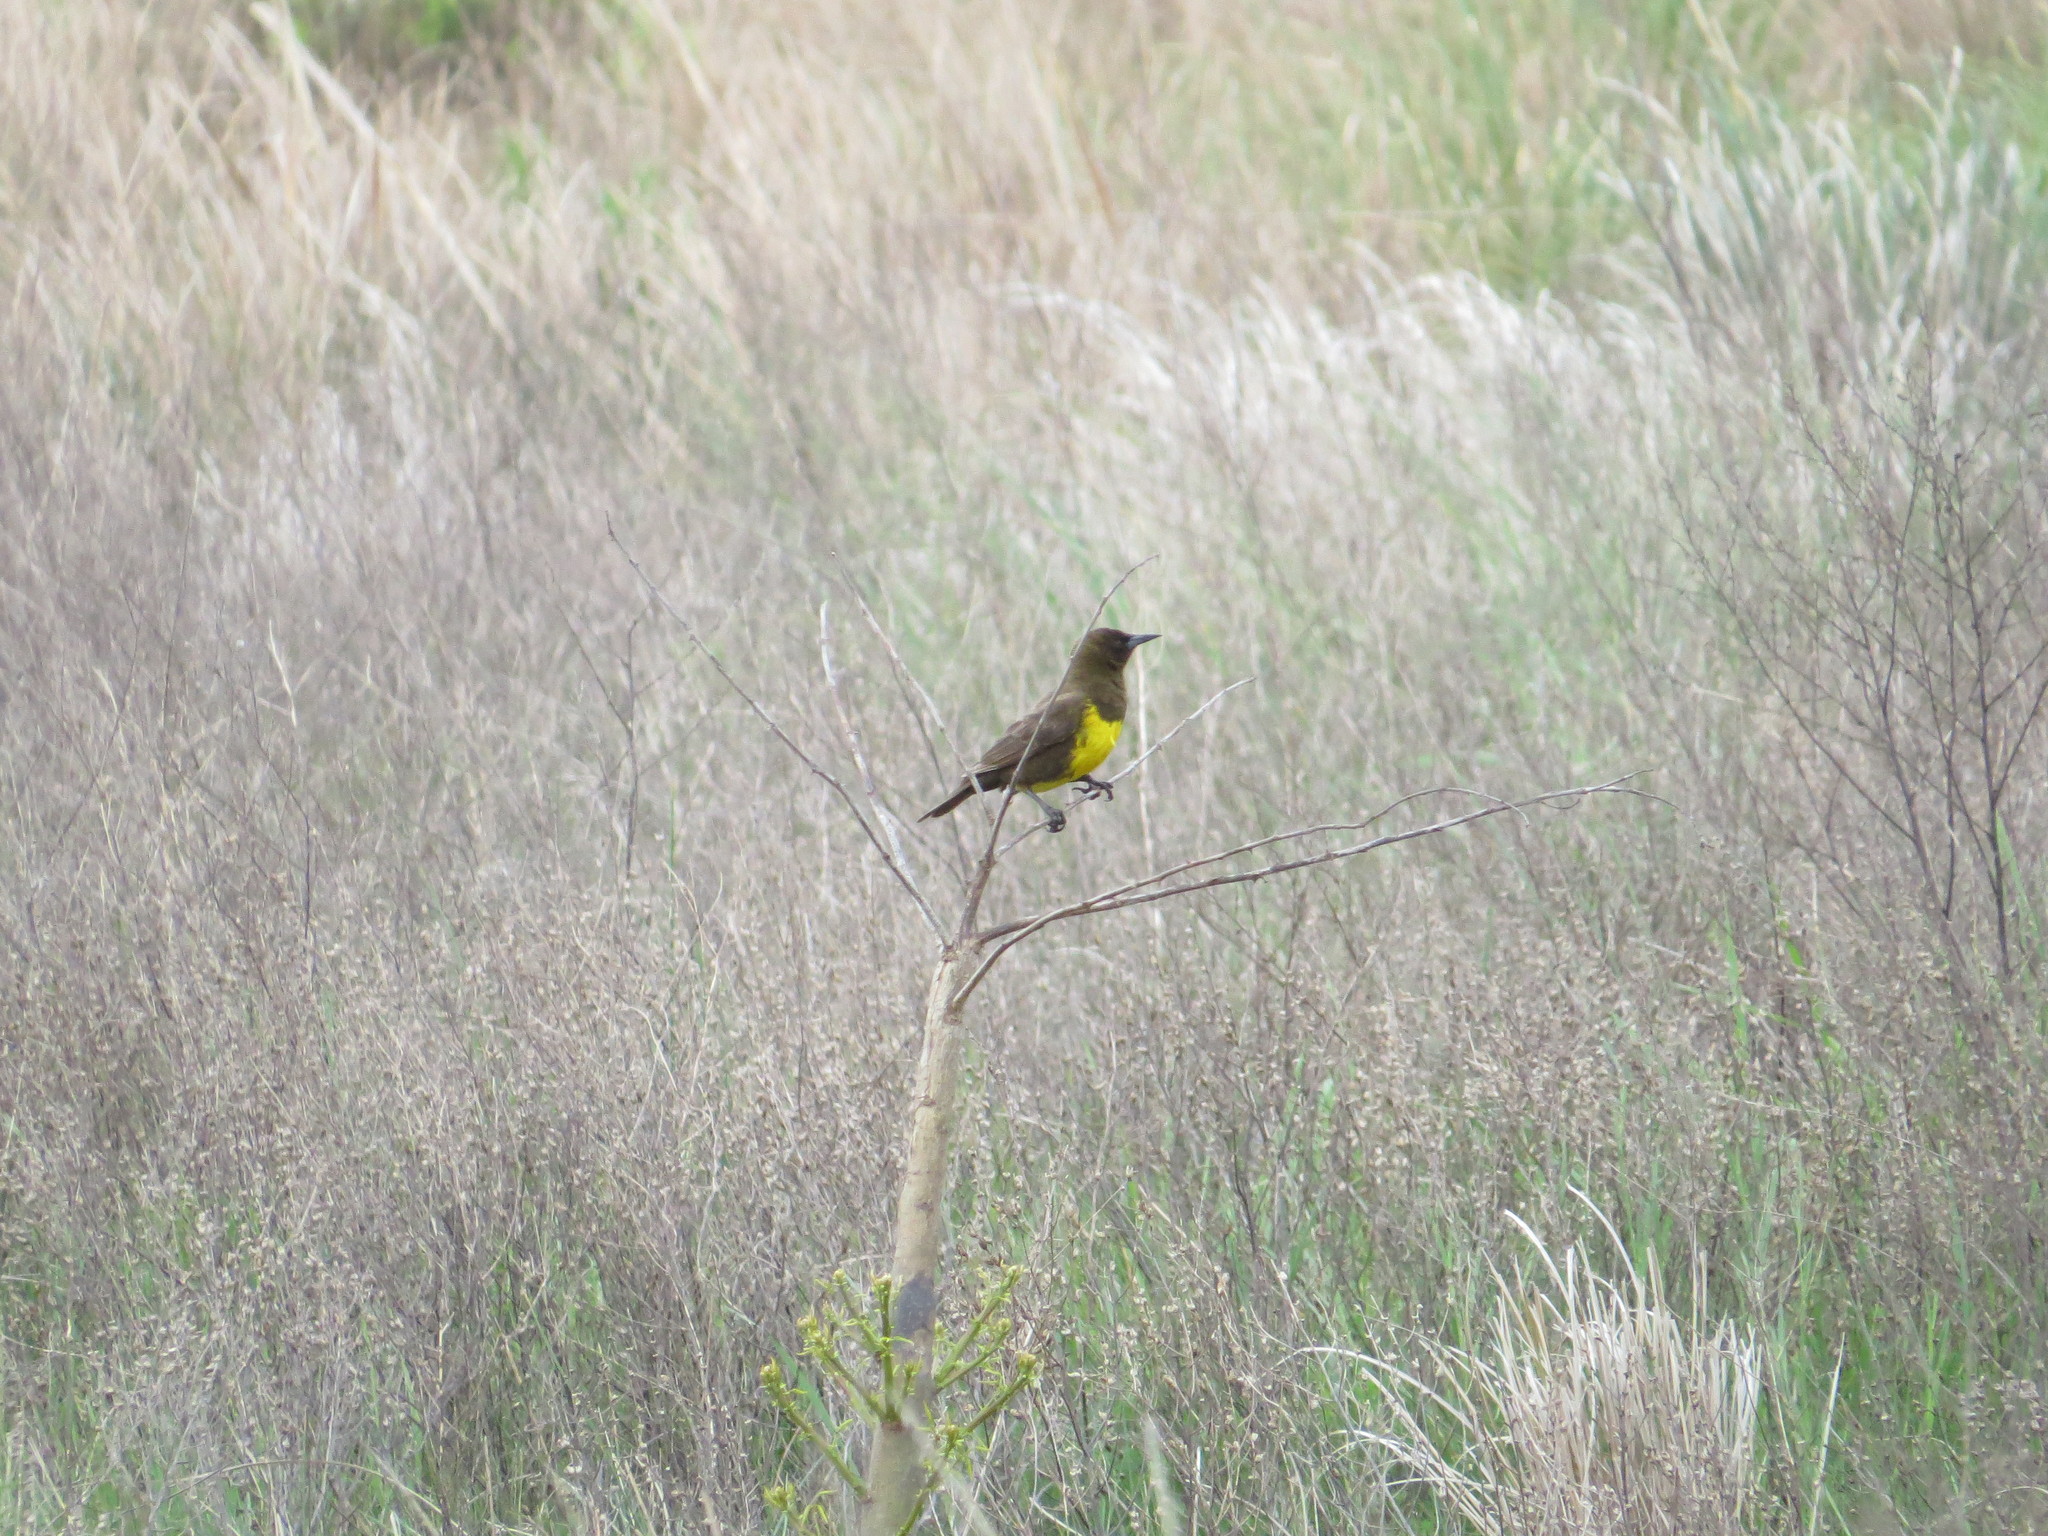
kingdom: Animalia
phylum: Chordata
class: Aves
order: Passeriformes
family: Icteridae
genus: Pseudoleistes
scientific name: Pseudoleistes virescens
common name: Brown-and-yellow marshbird
